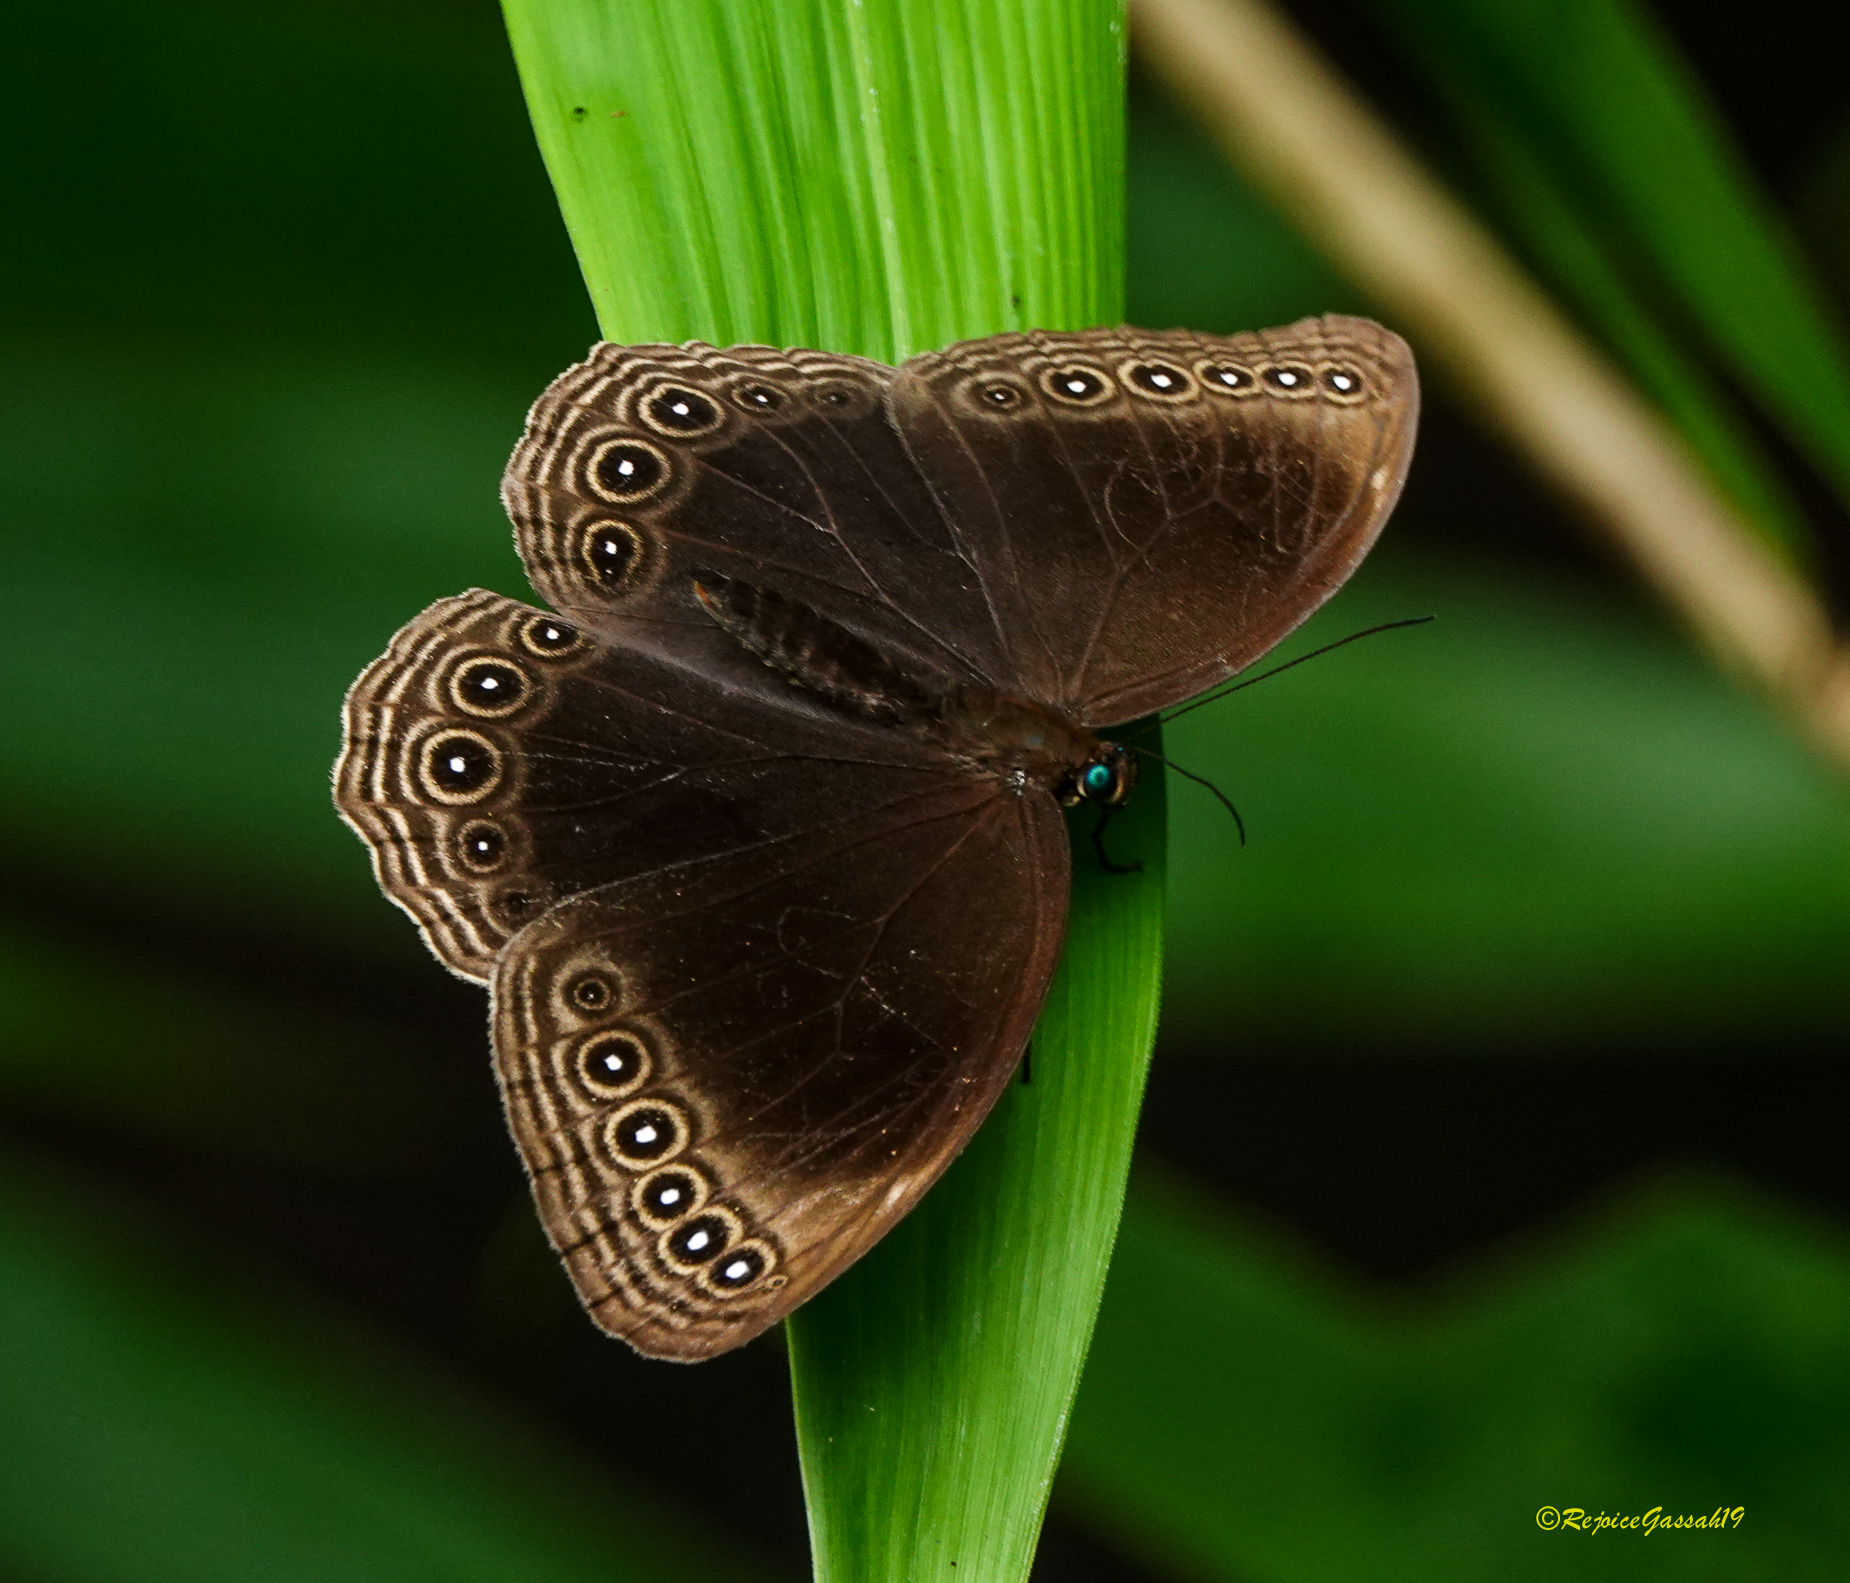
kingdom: Animalia
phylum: Arthropoda
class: Insecta
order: Lepidoptera
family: Nymphalidae
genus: Ethope
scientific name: Ethope himachala
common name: Dusky diadem
